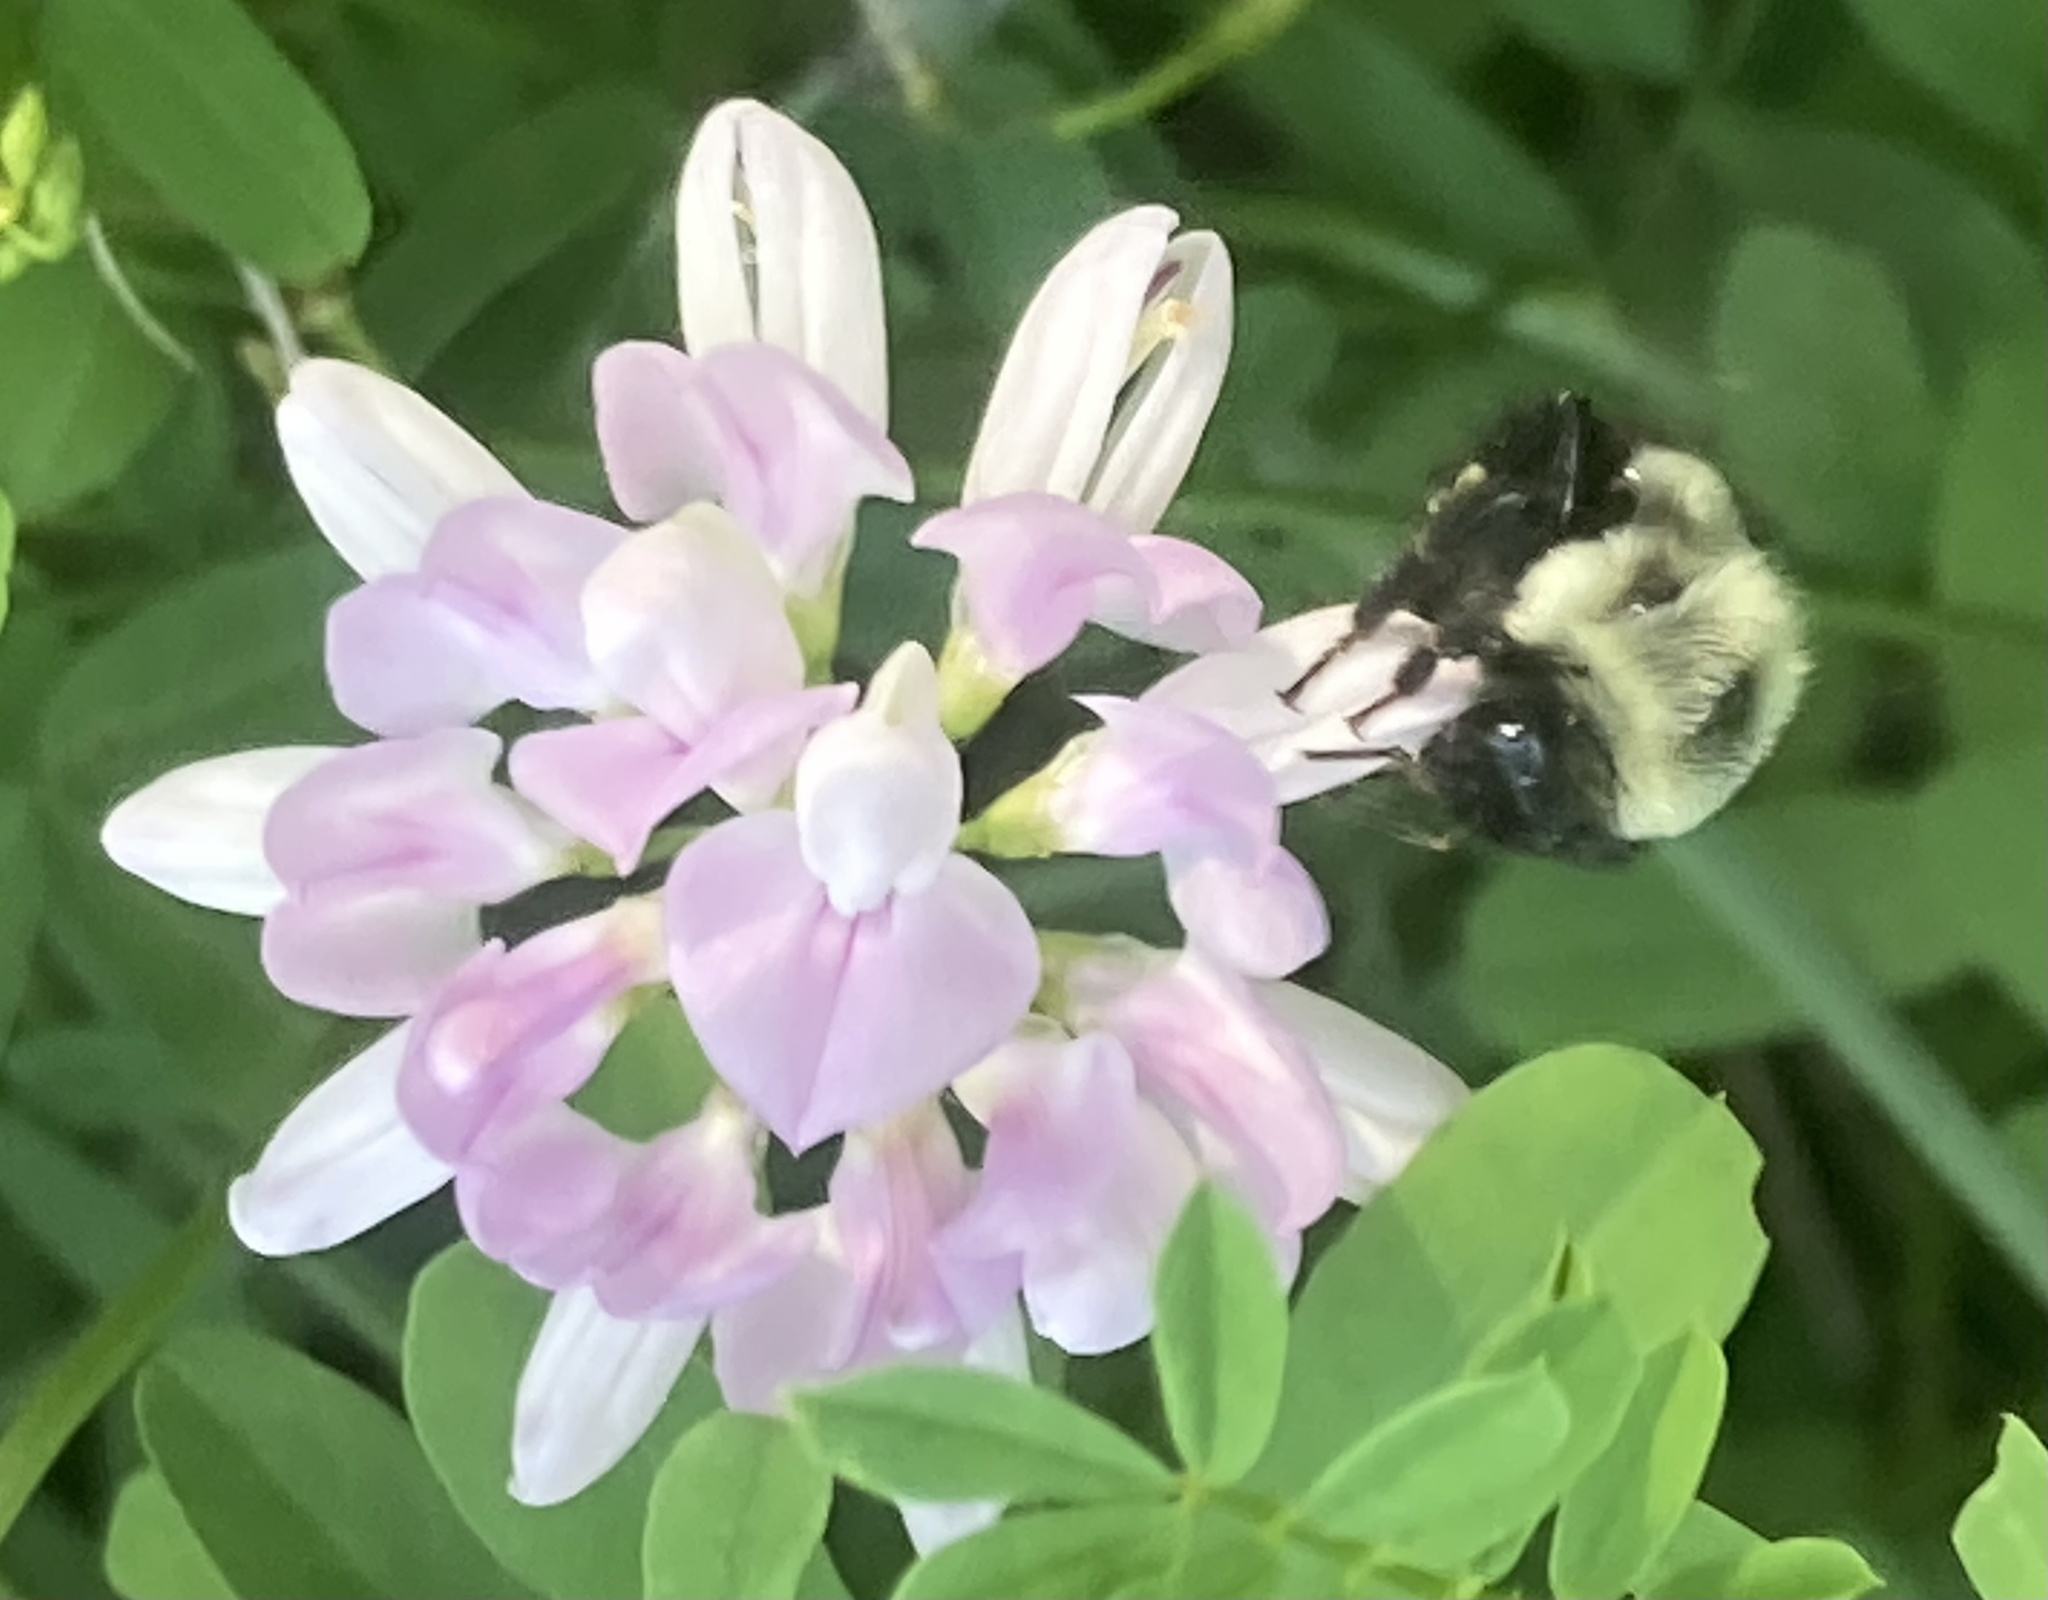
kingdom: Animalia
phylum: Arthropoda
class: Insecta
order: Hymenoptera
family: Apidae
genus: Bombus
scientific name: Bombus impatiens
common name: Common eastern bumble bee
